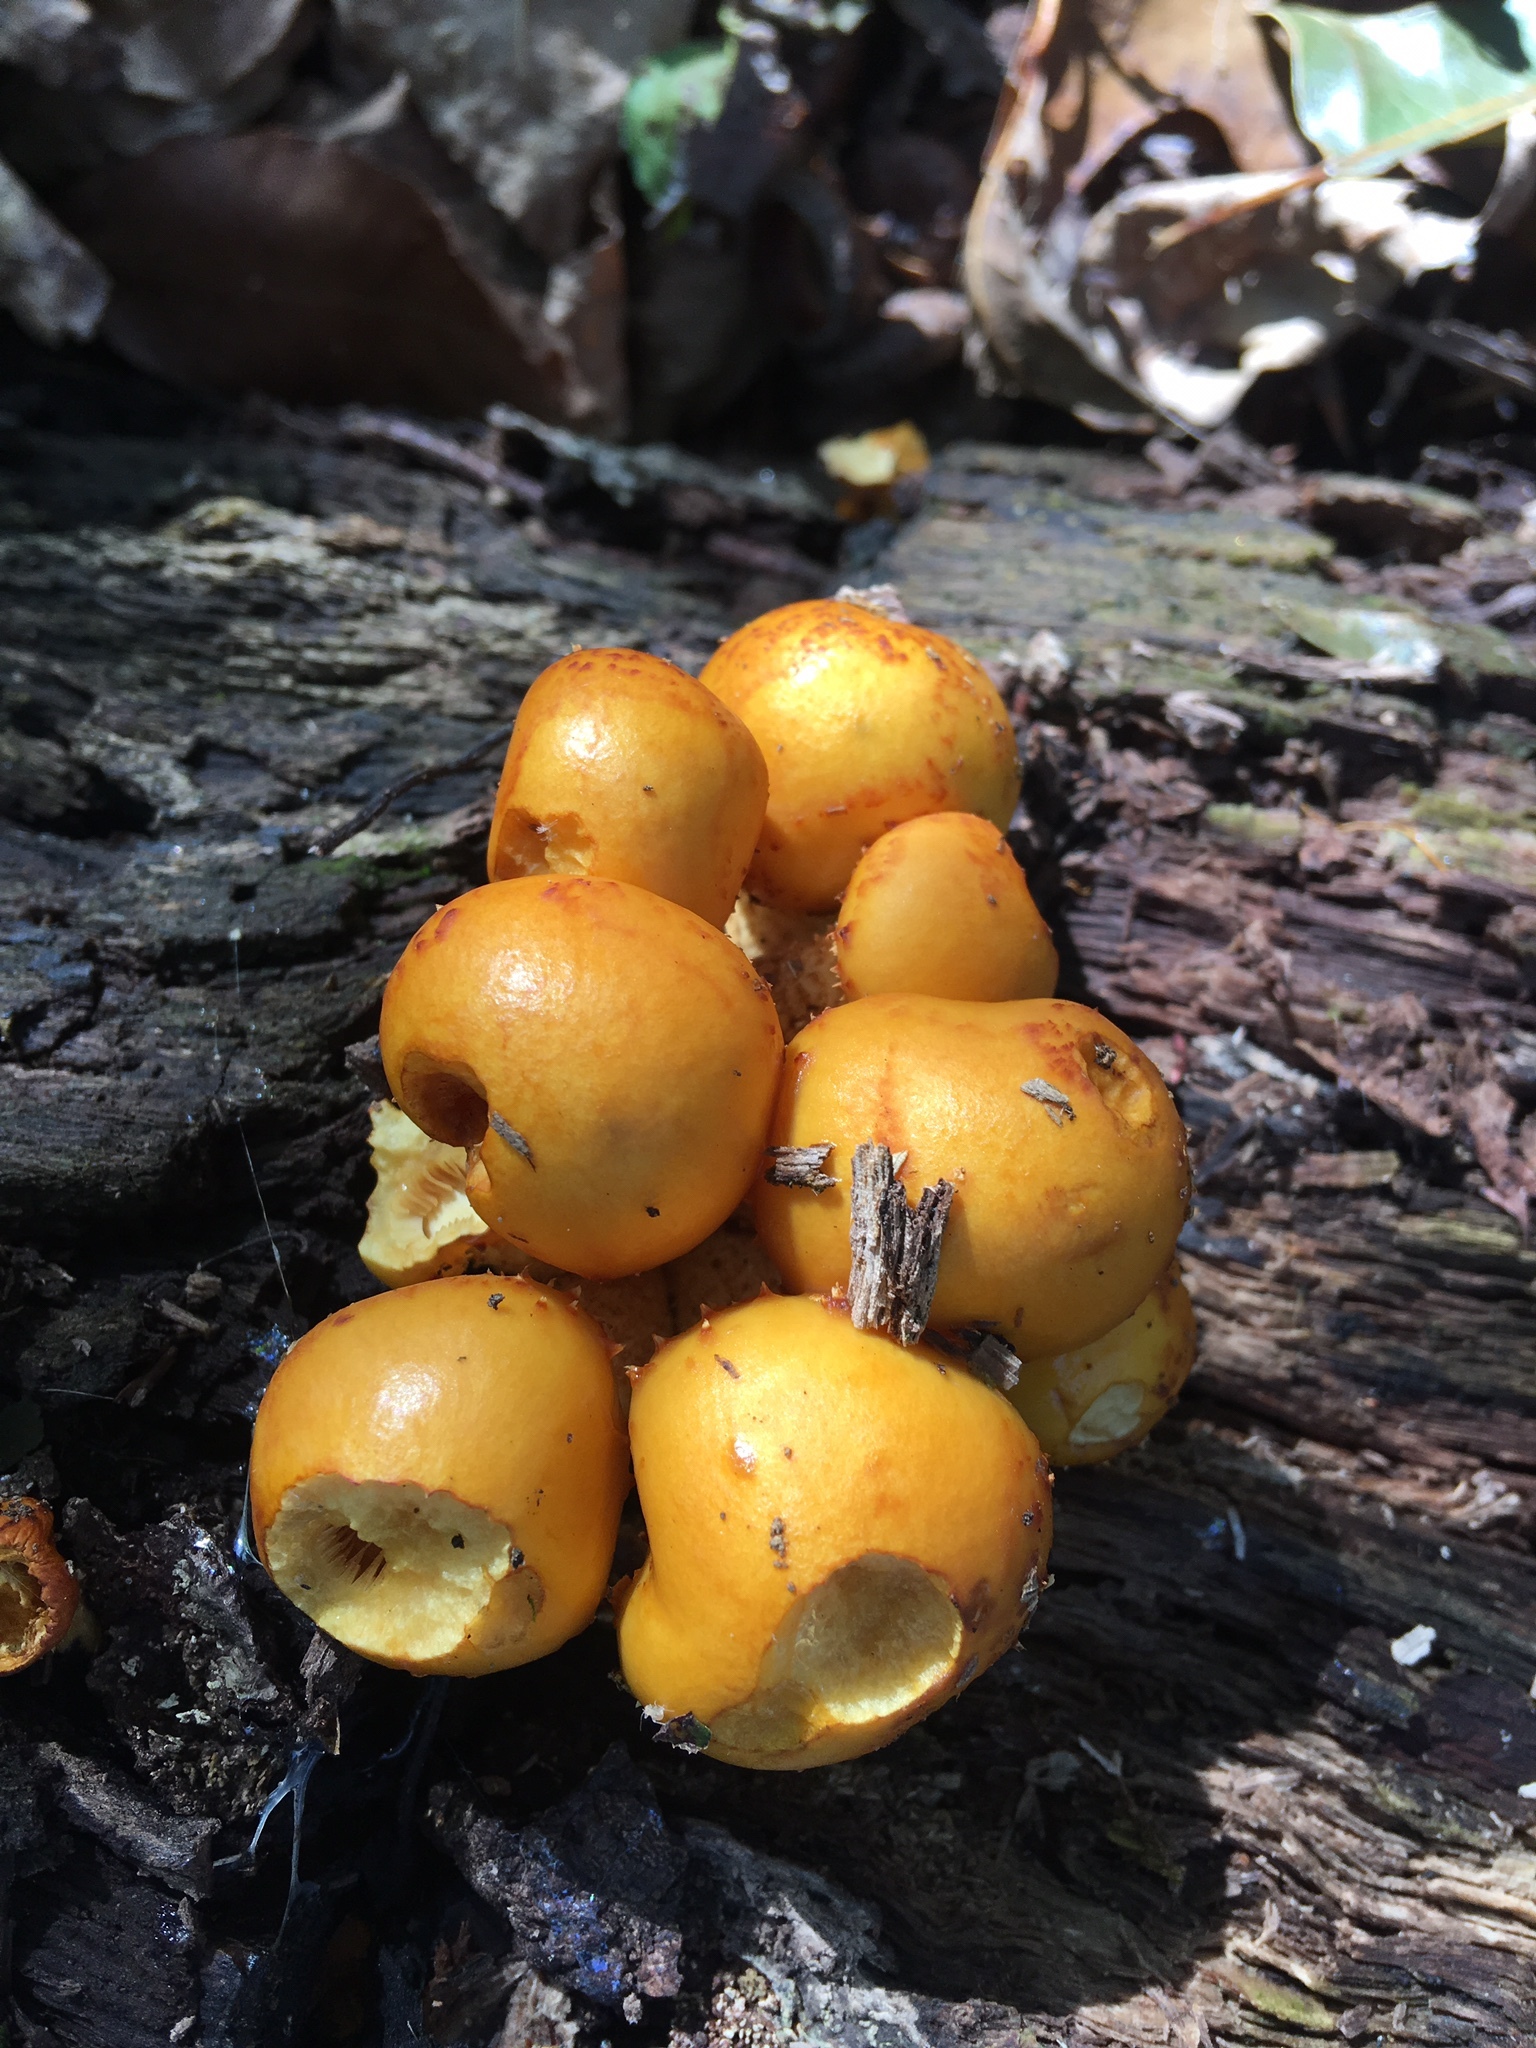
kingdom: Fungi
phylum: Basidiomycota
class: Agaricomycetes
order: Agaricales
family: Strophariaceae
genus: Pholiota
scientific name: Pholiota aurivella
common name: Golden scalycap
